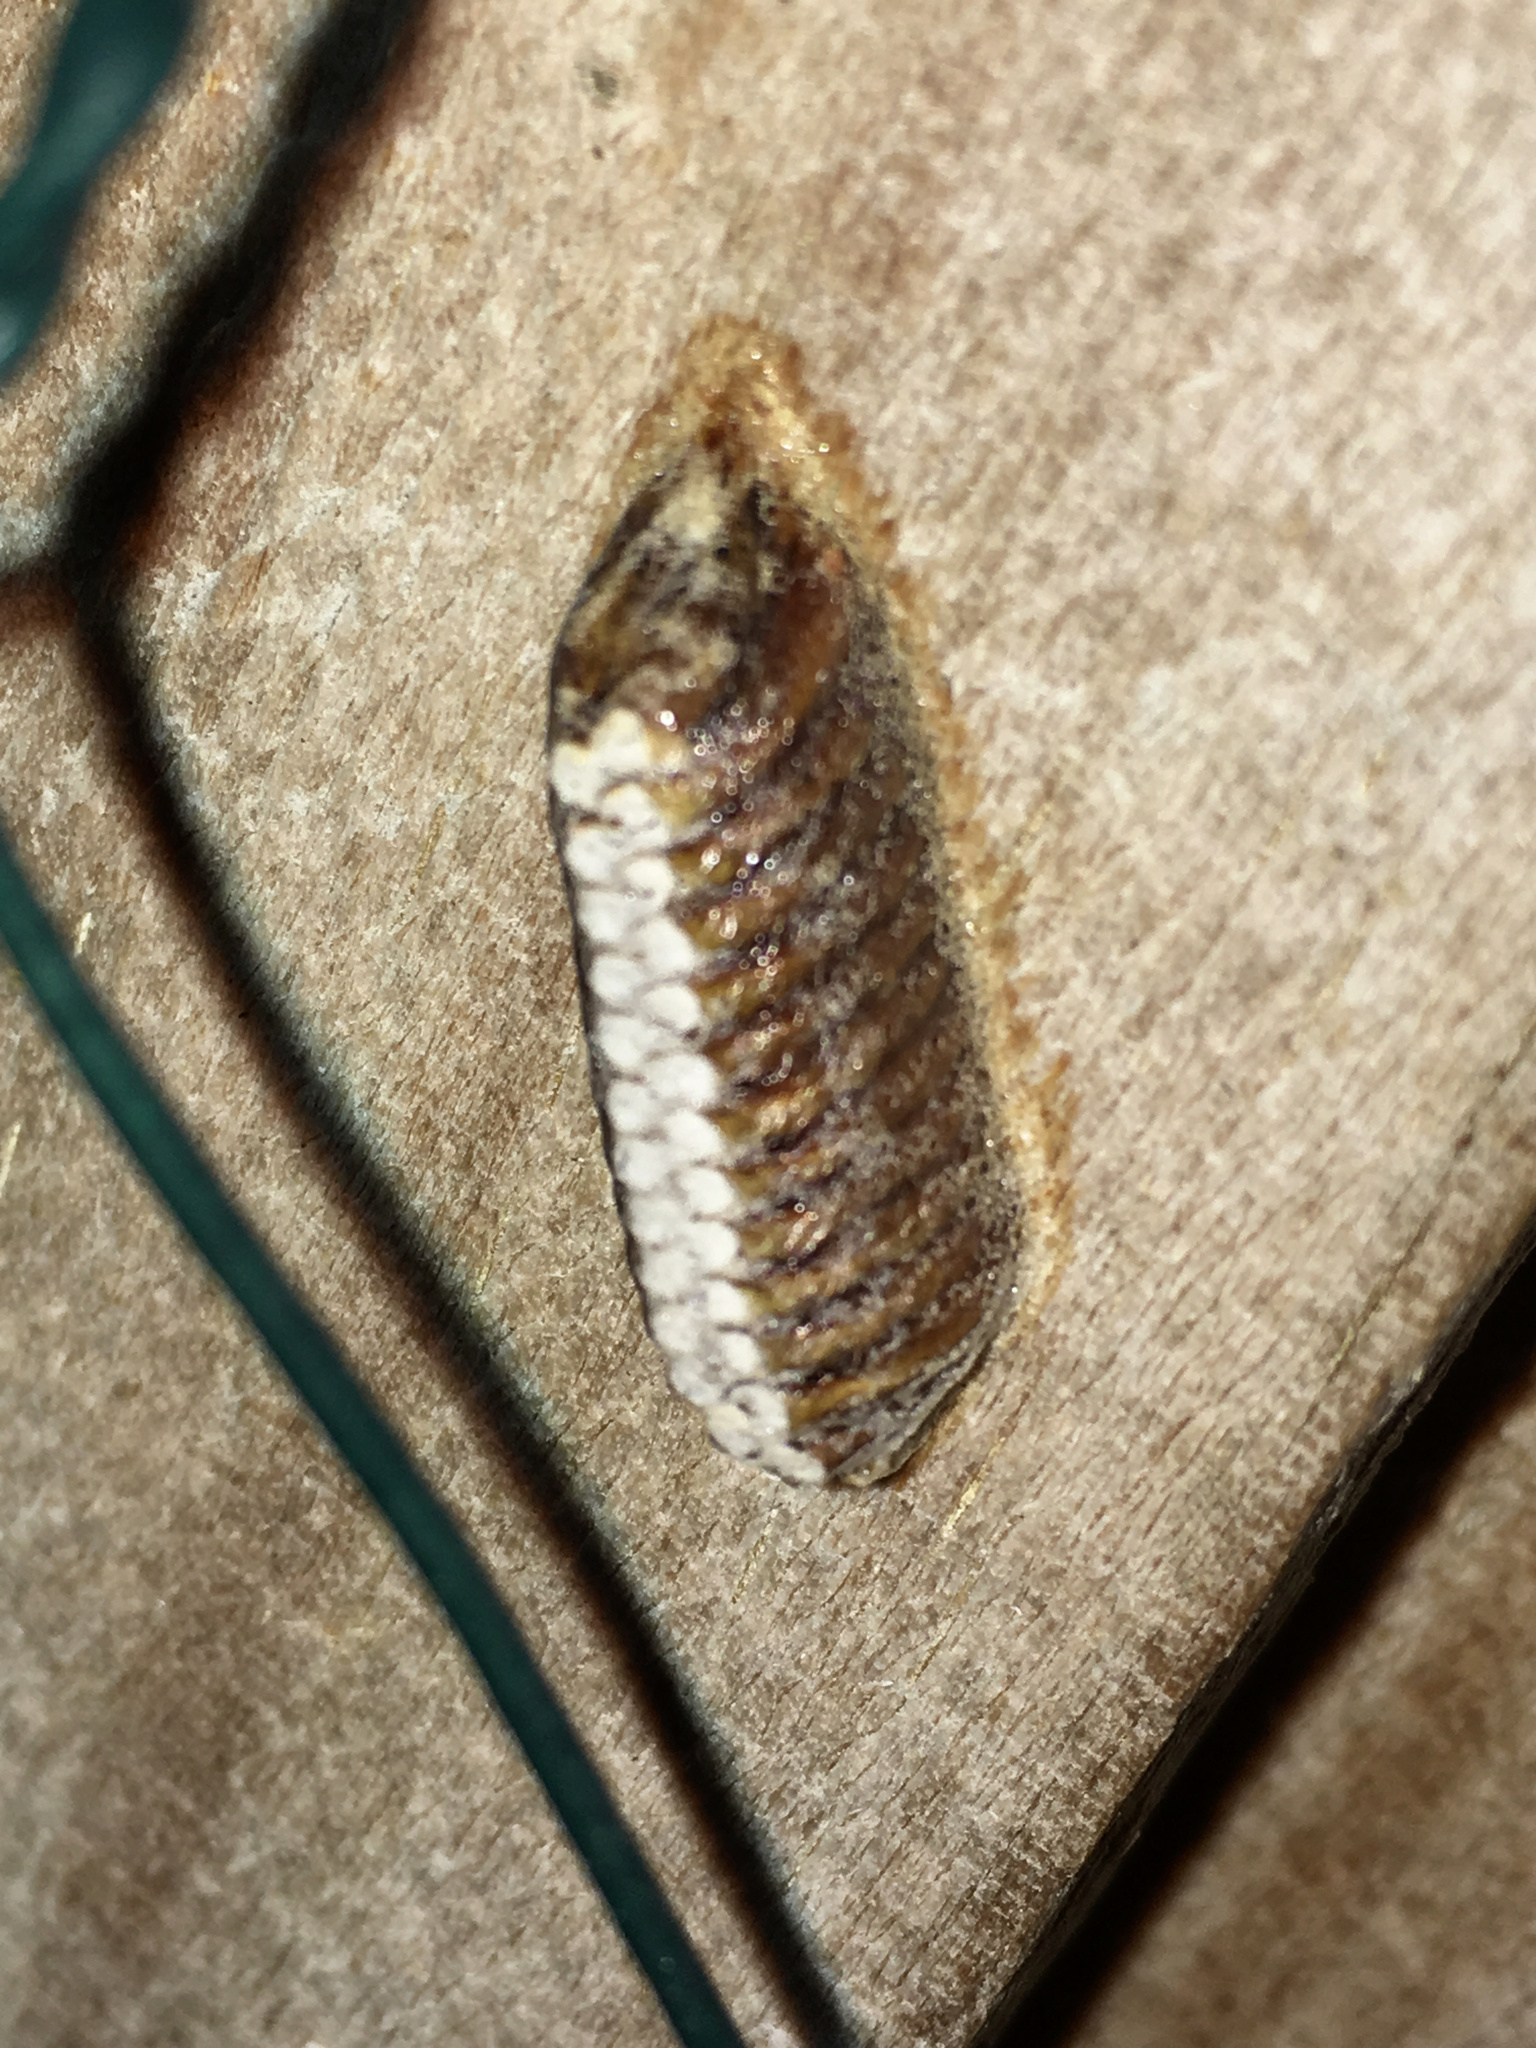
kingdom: Animalia
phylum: Arthropoda
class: Insecta
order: Mantodea
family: Mantidae
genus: Orthodera
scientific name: Orthodera novaezealandiae
